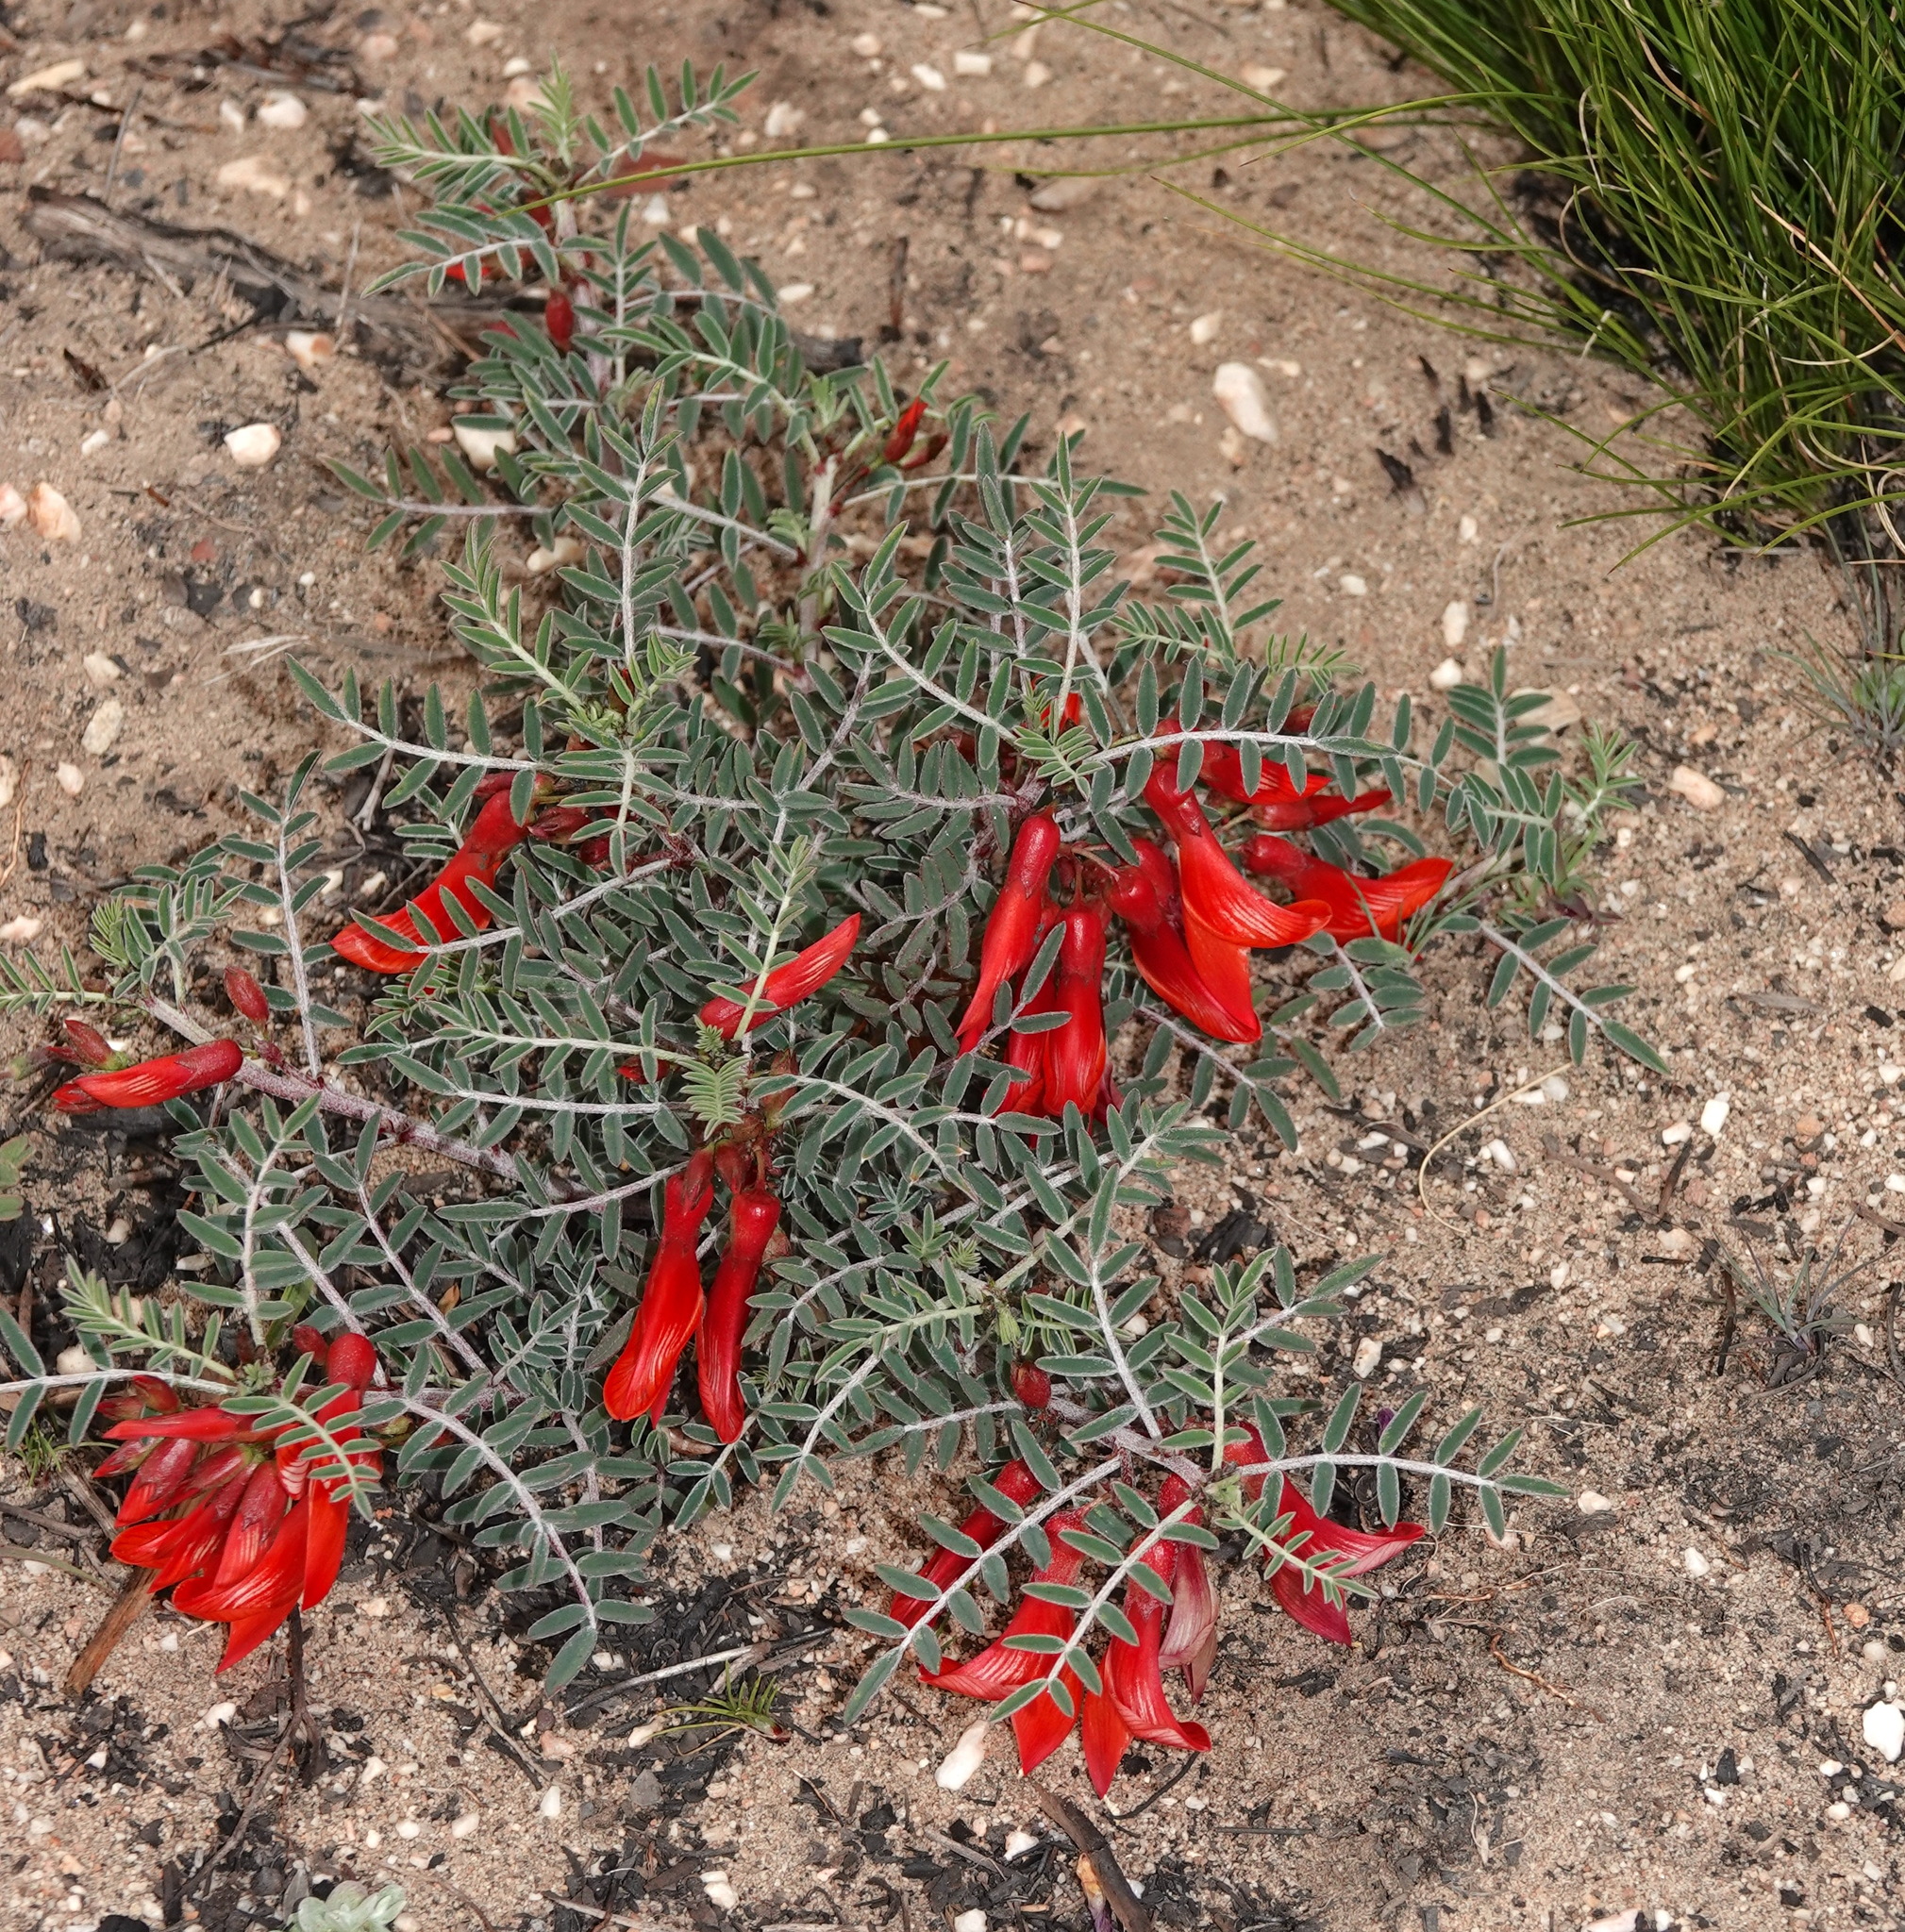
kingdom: Plantae
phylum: Tracheophyta
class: Magnoliopsida
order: Fabales
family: Fabaceae
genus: Lessertia
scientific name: Lessertia frutescens
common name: Balloon-pea
